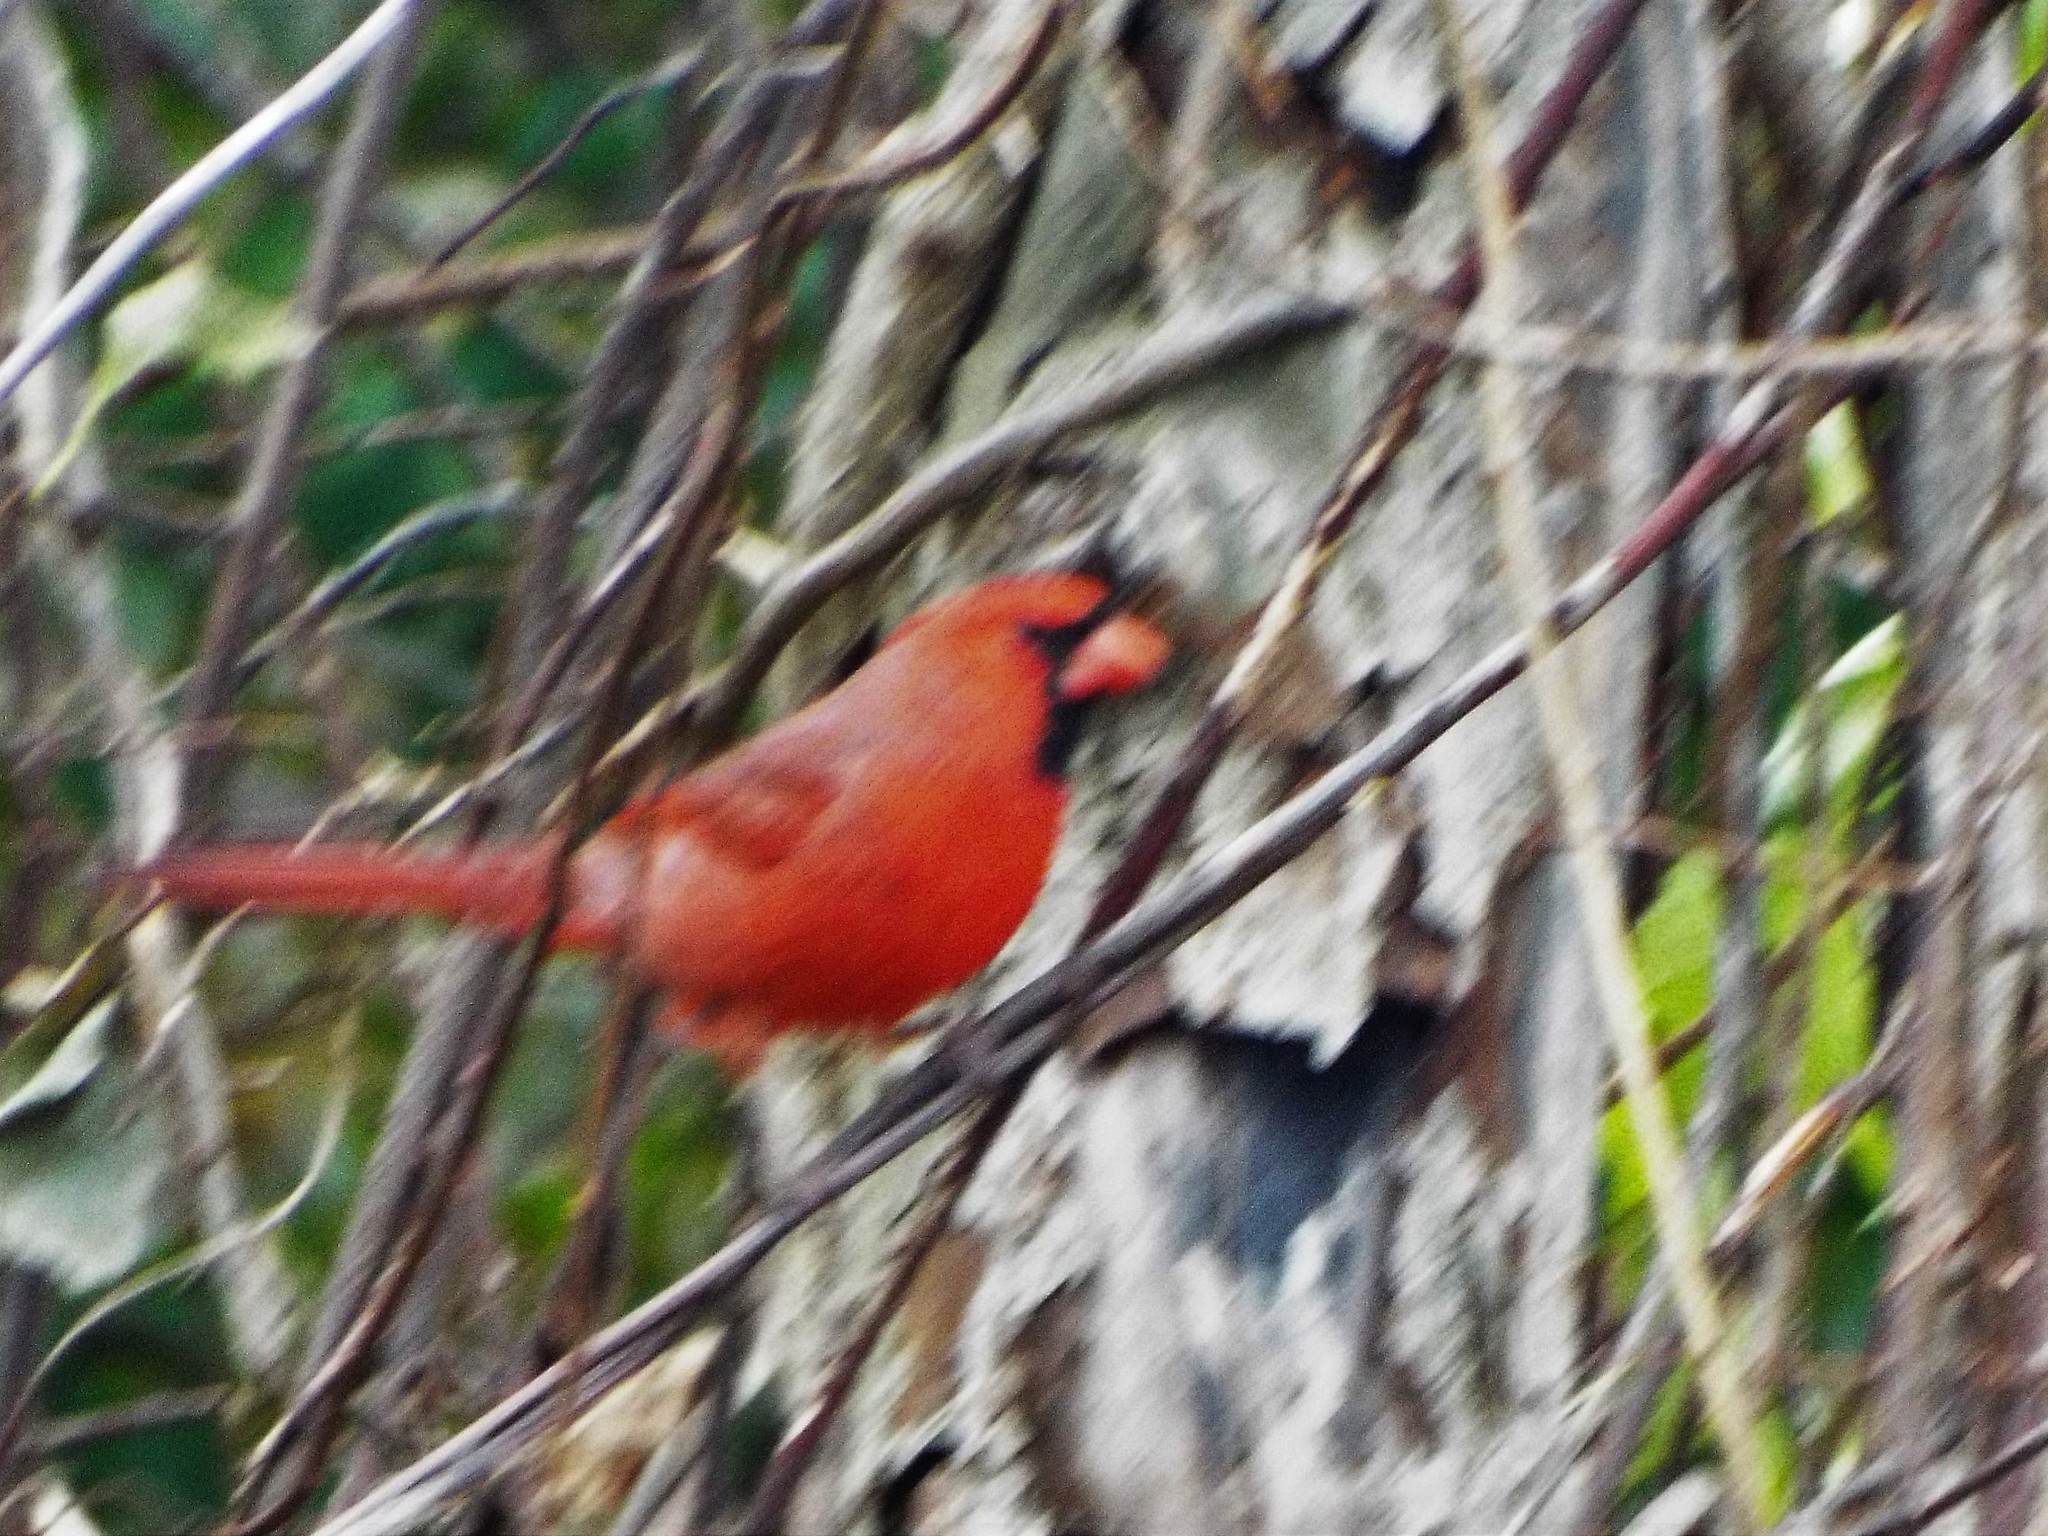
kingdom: Animalia
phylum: Chordata
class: Aves
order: Passeriformes
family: Cardinalidae
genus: Cardinalis
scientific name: Cardinalis cardinalis
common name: Northern cardinal
